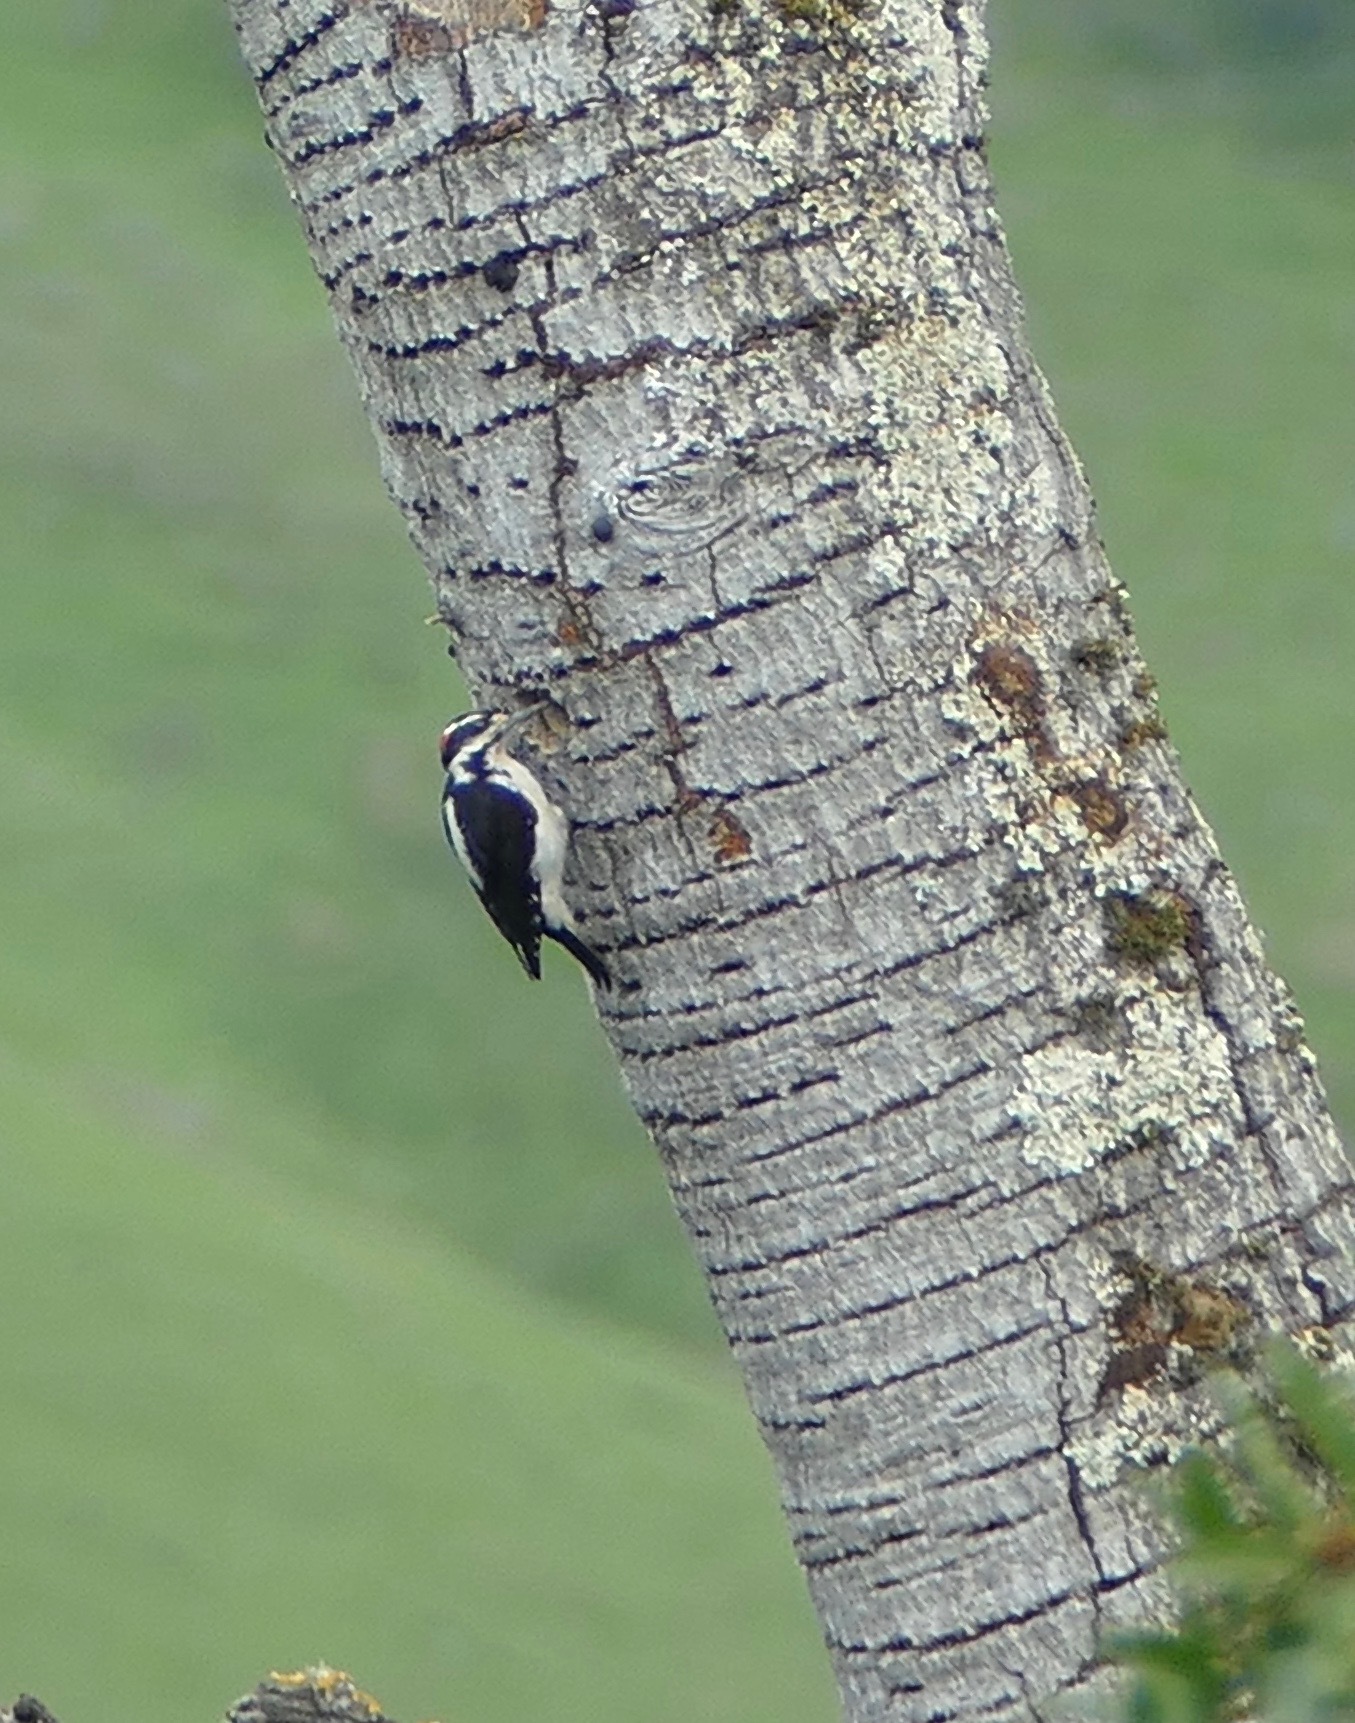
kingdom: Animalia
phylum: Chordata
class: Aves
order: Piciformes
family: Picidae
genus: Leuconotopicus
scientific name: Leuconotopicus villosus
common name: Hairy woodpecker
